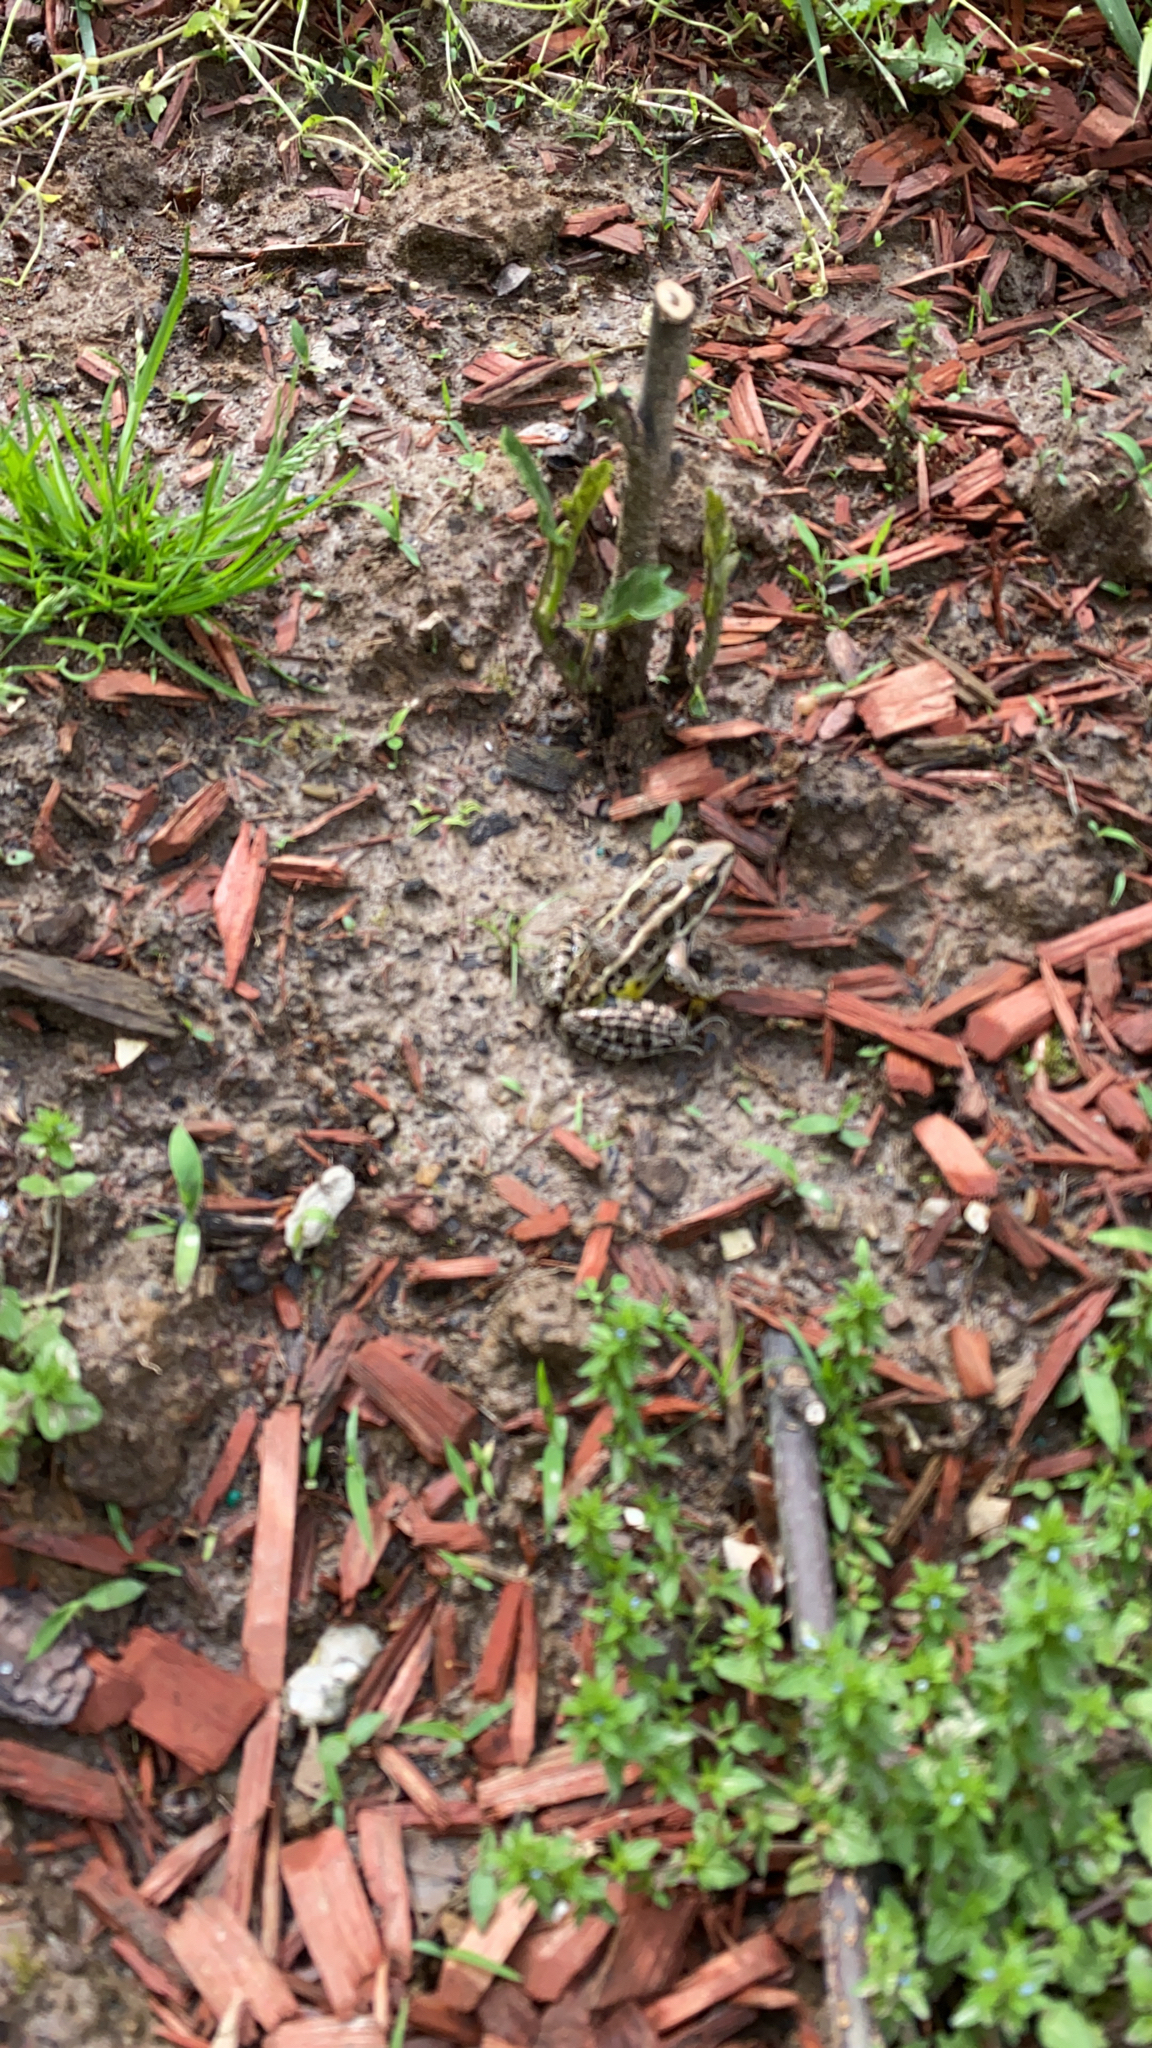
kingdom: Animalia
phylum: Chordata
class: Amphibia
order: Anura
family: Ranidae
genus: Lithobates
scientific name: Lithobates palustris
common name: Pickerel frog
